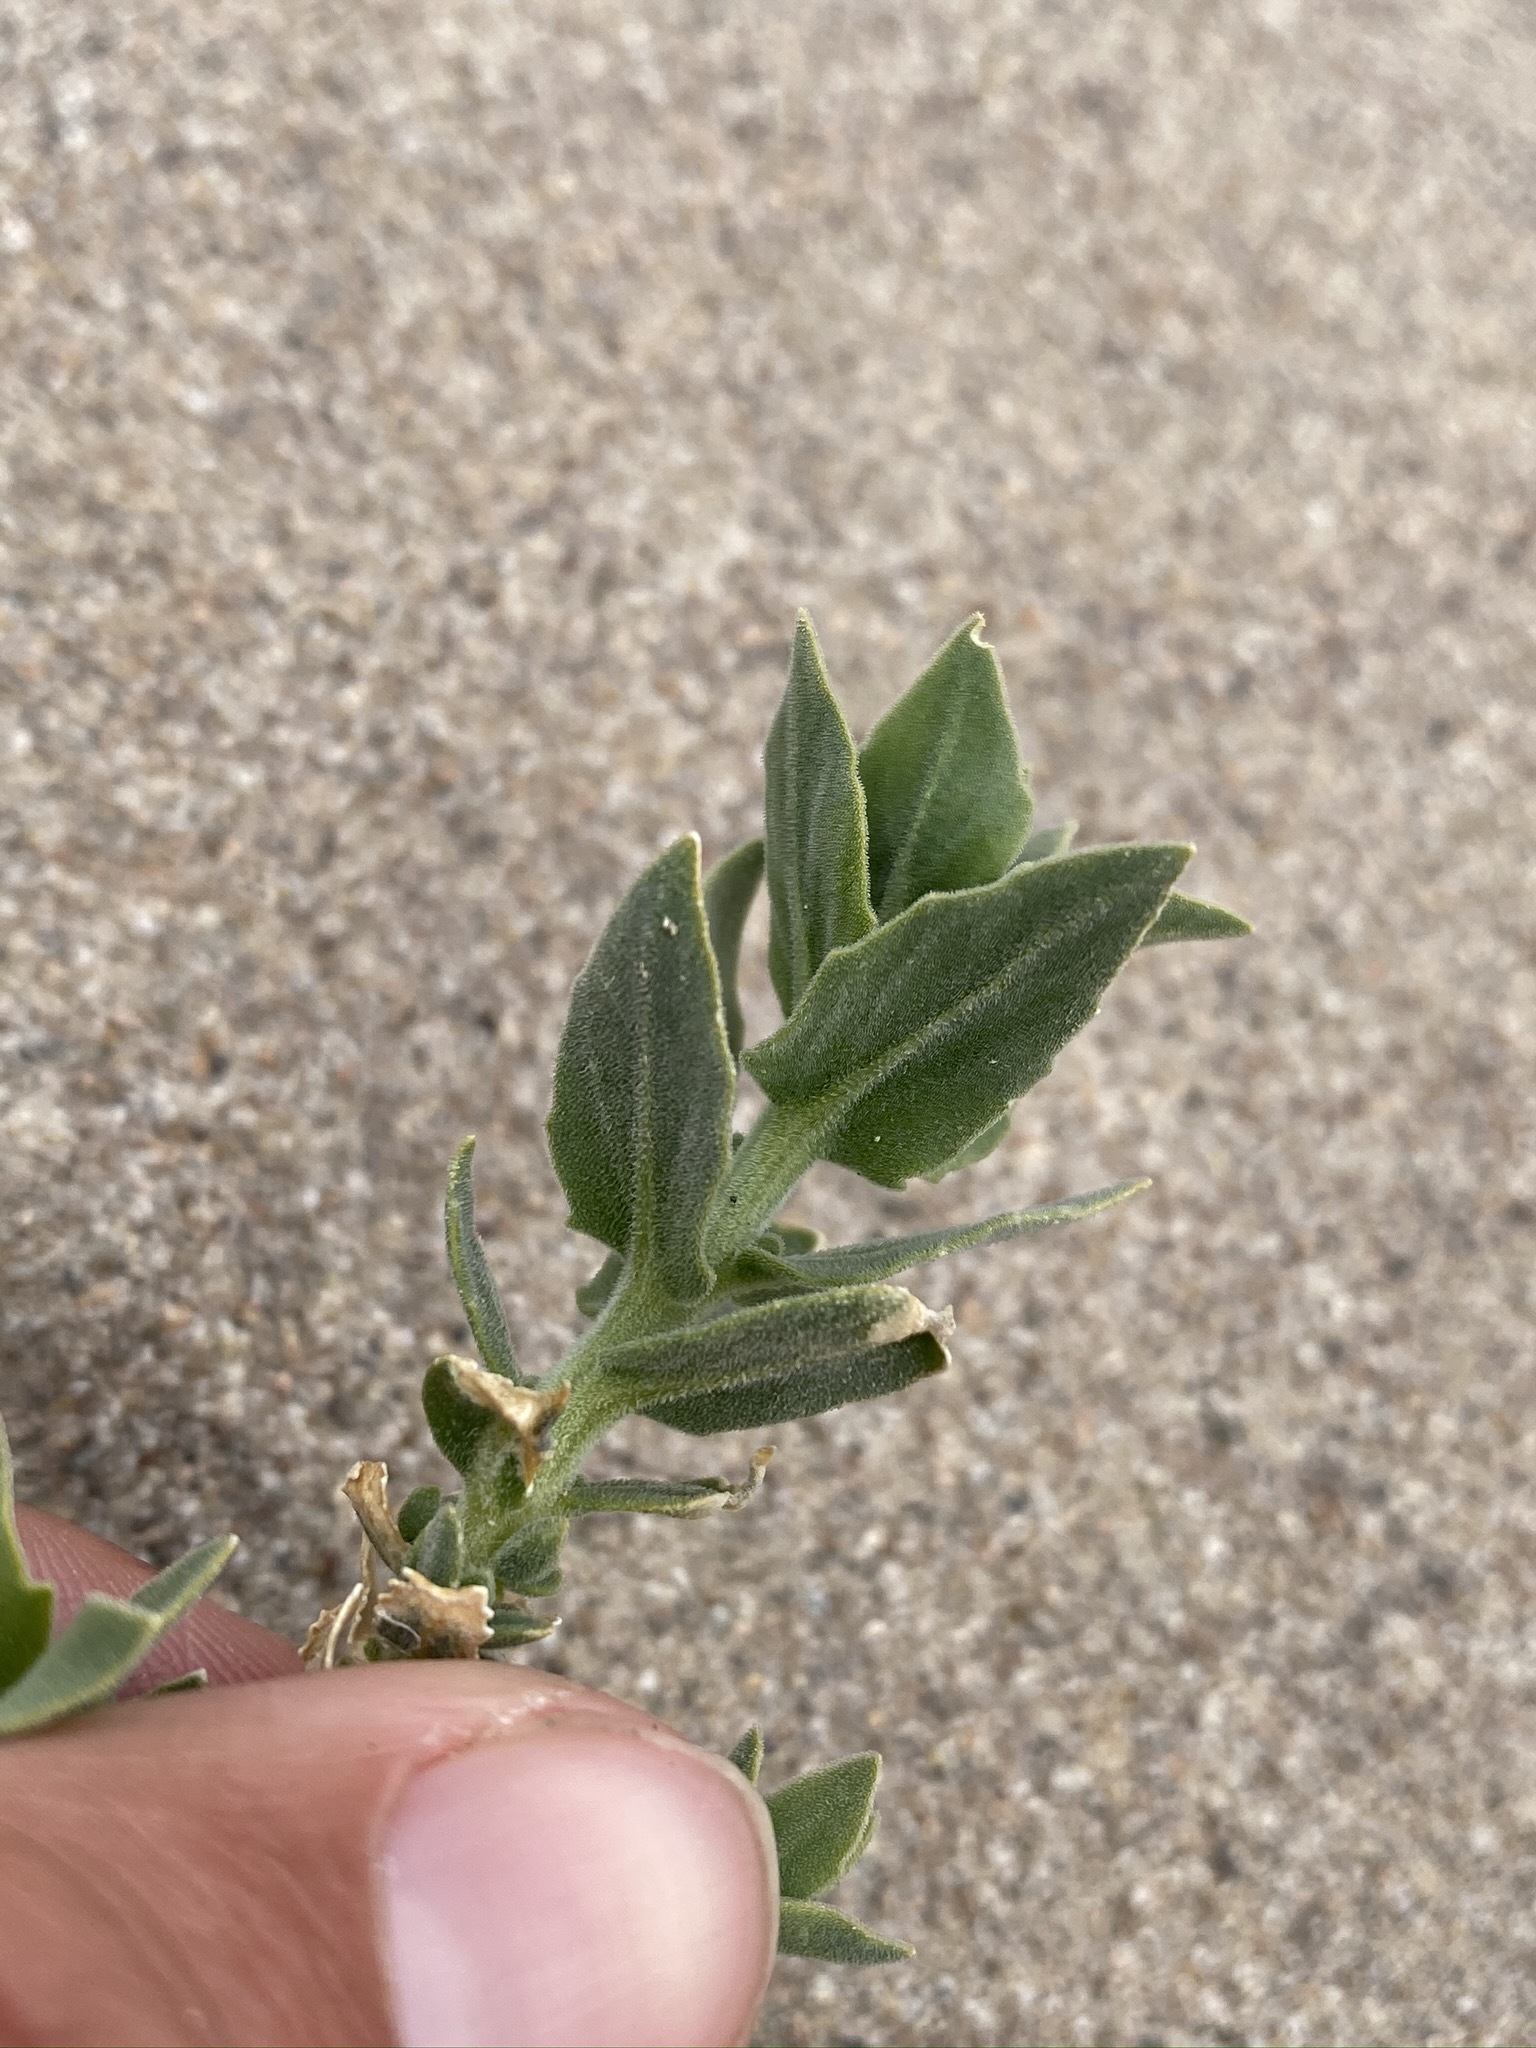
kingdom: Plantae
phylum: Tracheophyta
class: Magnoliopsida
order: Cornales
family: Loasaceae
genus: Petalonyx
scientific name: Petalonyx thurberi
